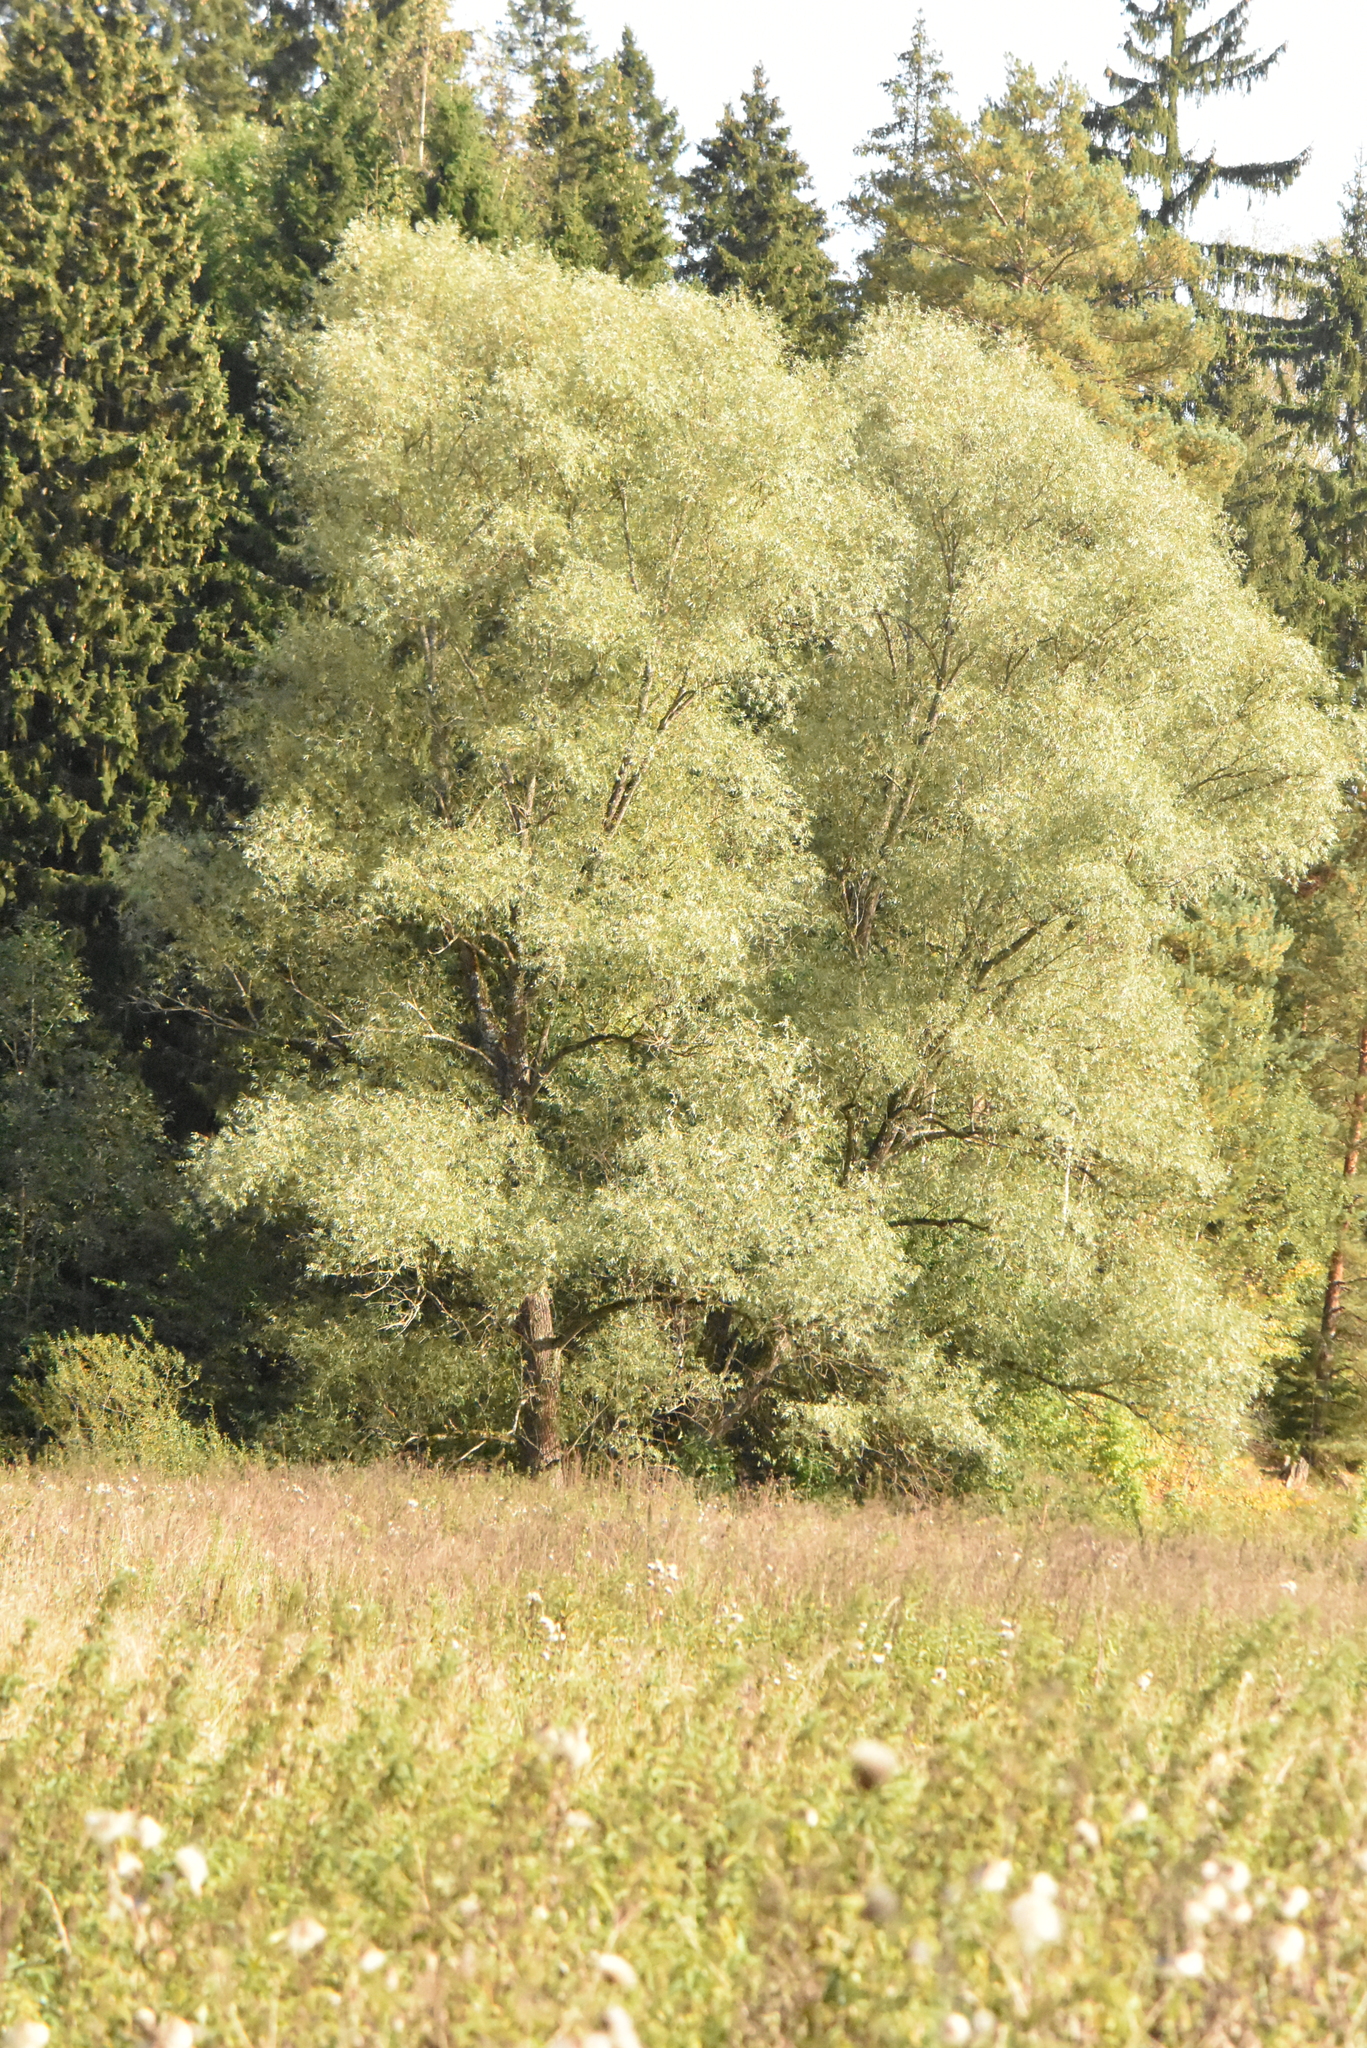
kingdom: Plantae
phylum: Tracheophyta
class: Magnoliopsida
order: Malpighiales
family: Salicaceae
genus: Salix
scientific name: Salix alba
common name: White willow
